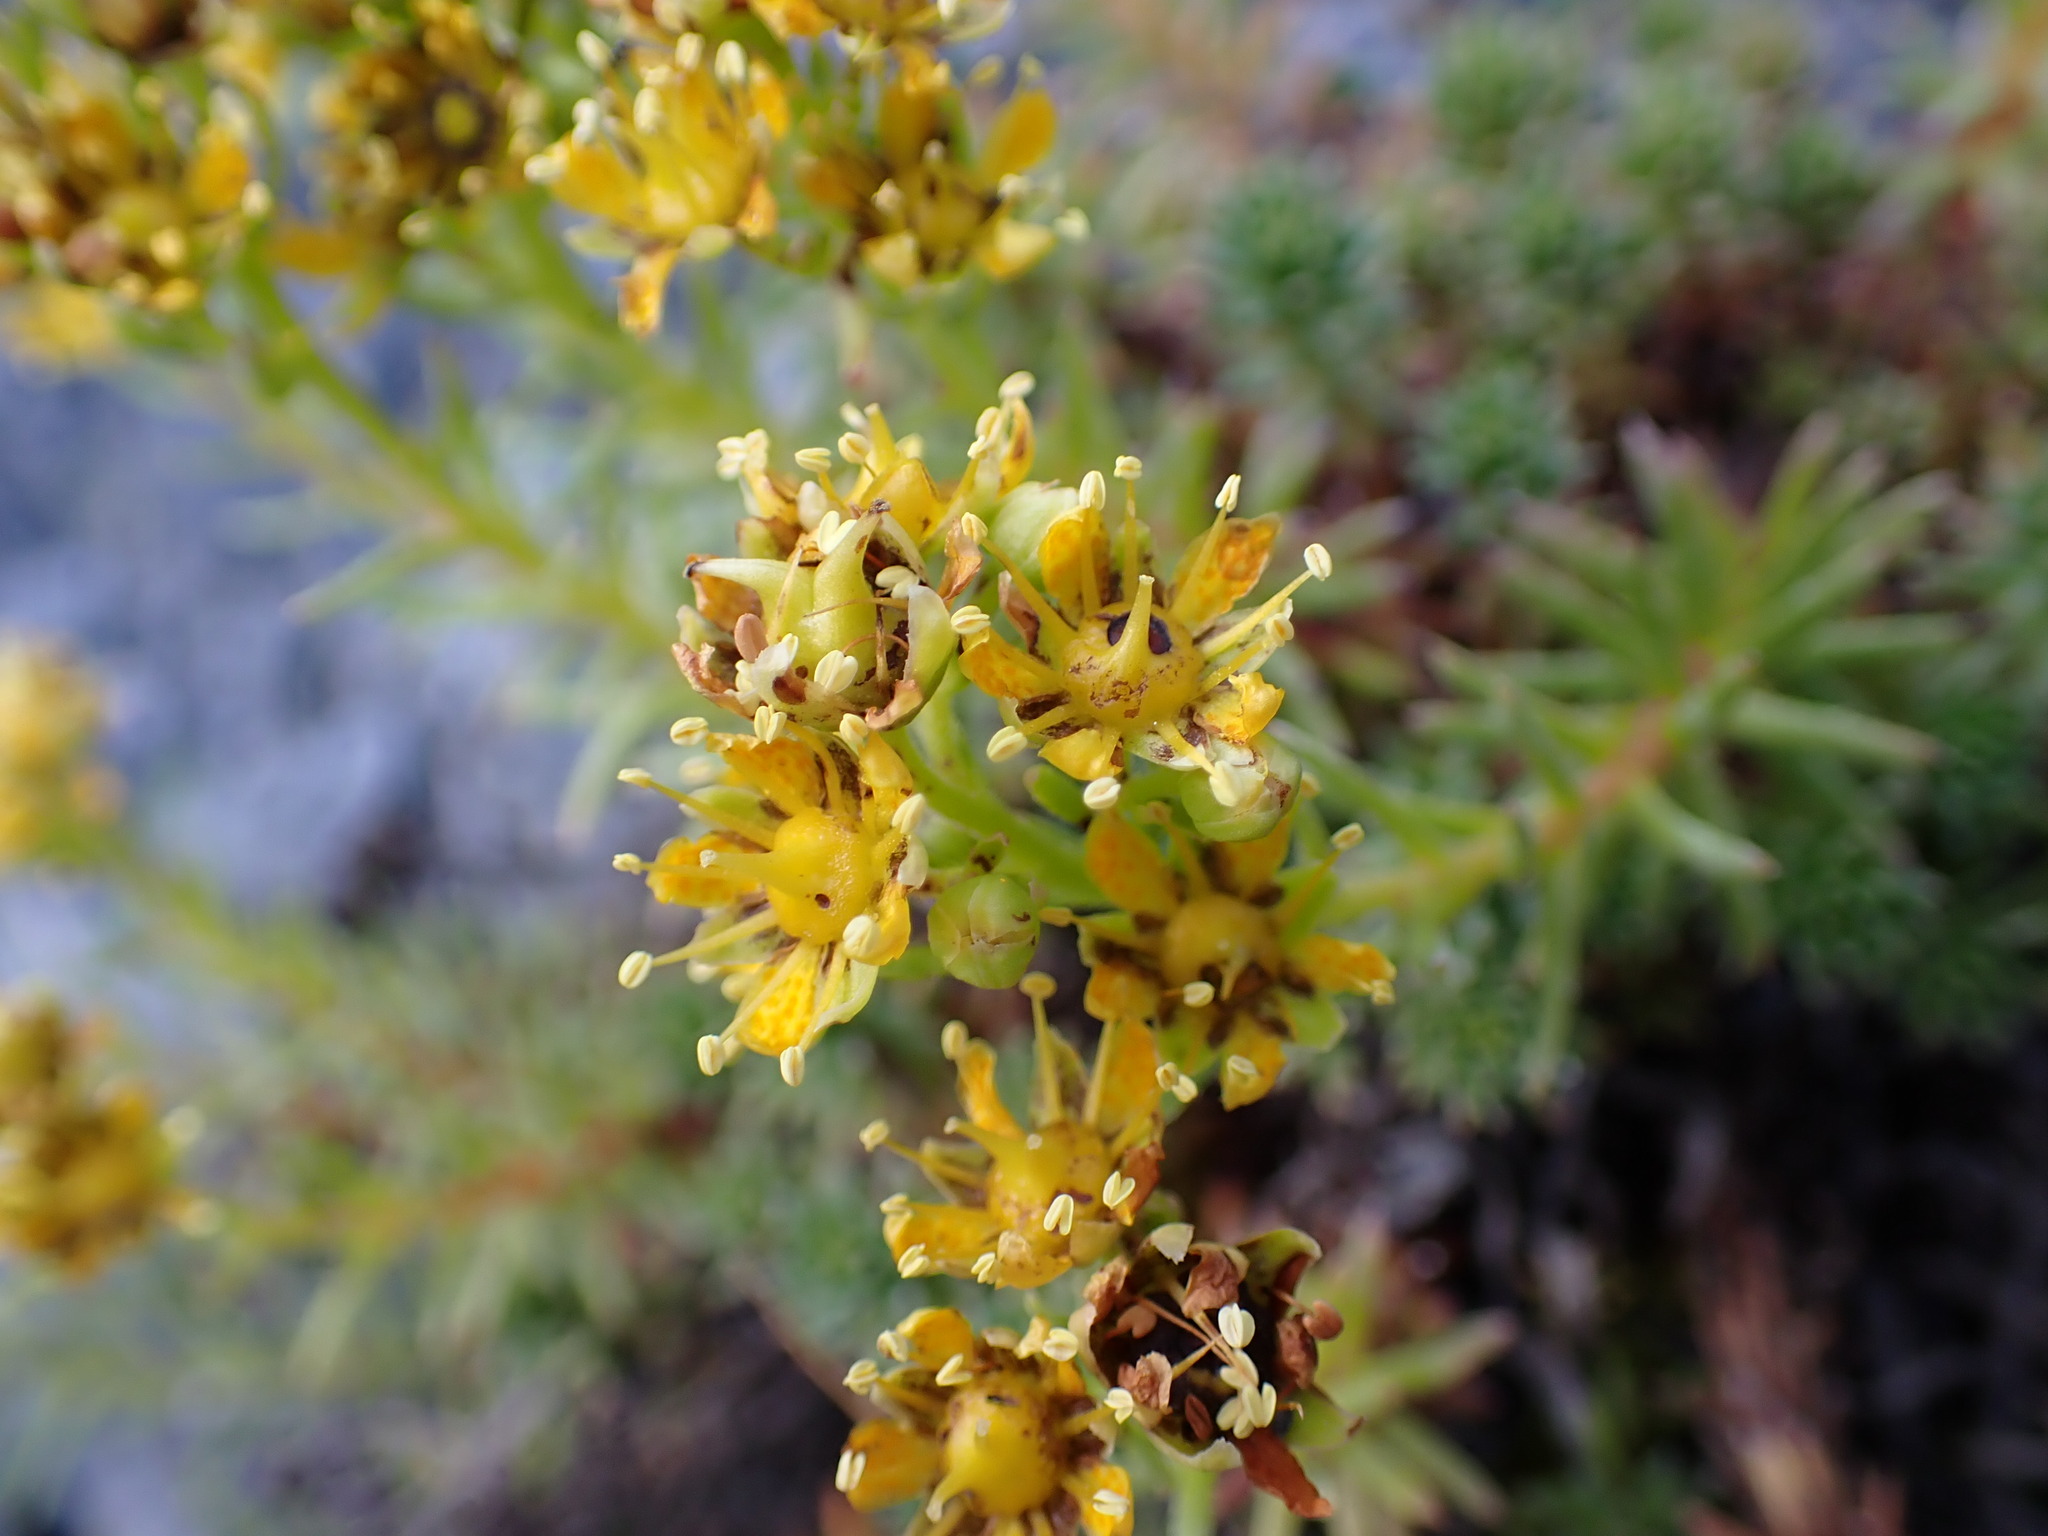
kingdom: Plantae
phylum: Tracheophyta
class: Magnoliopsida
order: Saxifragales
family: Saxifragaceae
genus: Saxifraga
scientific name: Saxifraga aizoides
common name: Yellow mountain saxifrage
